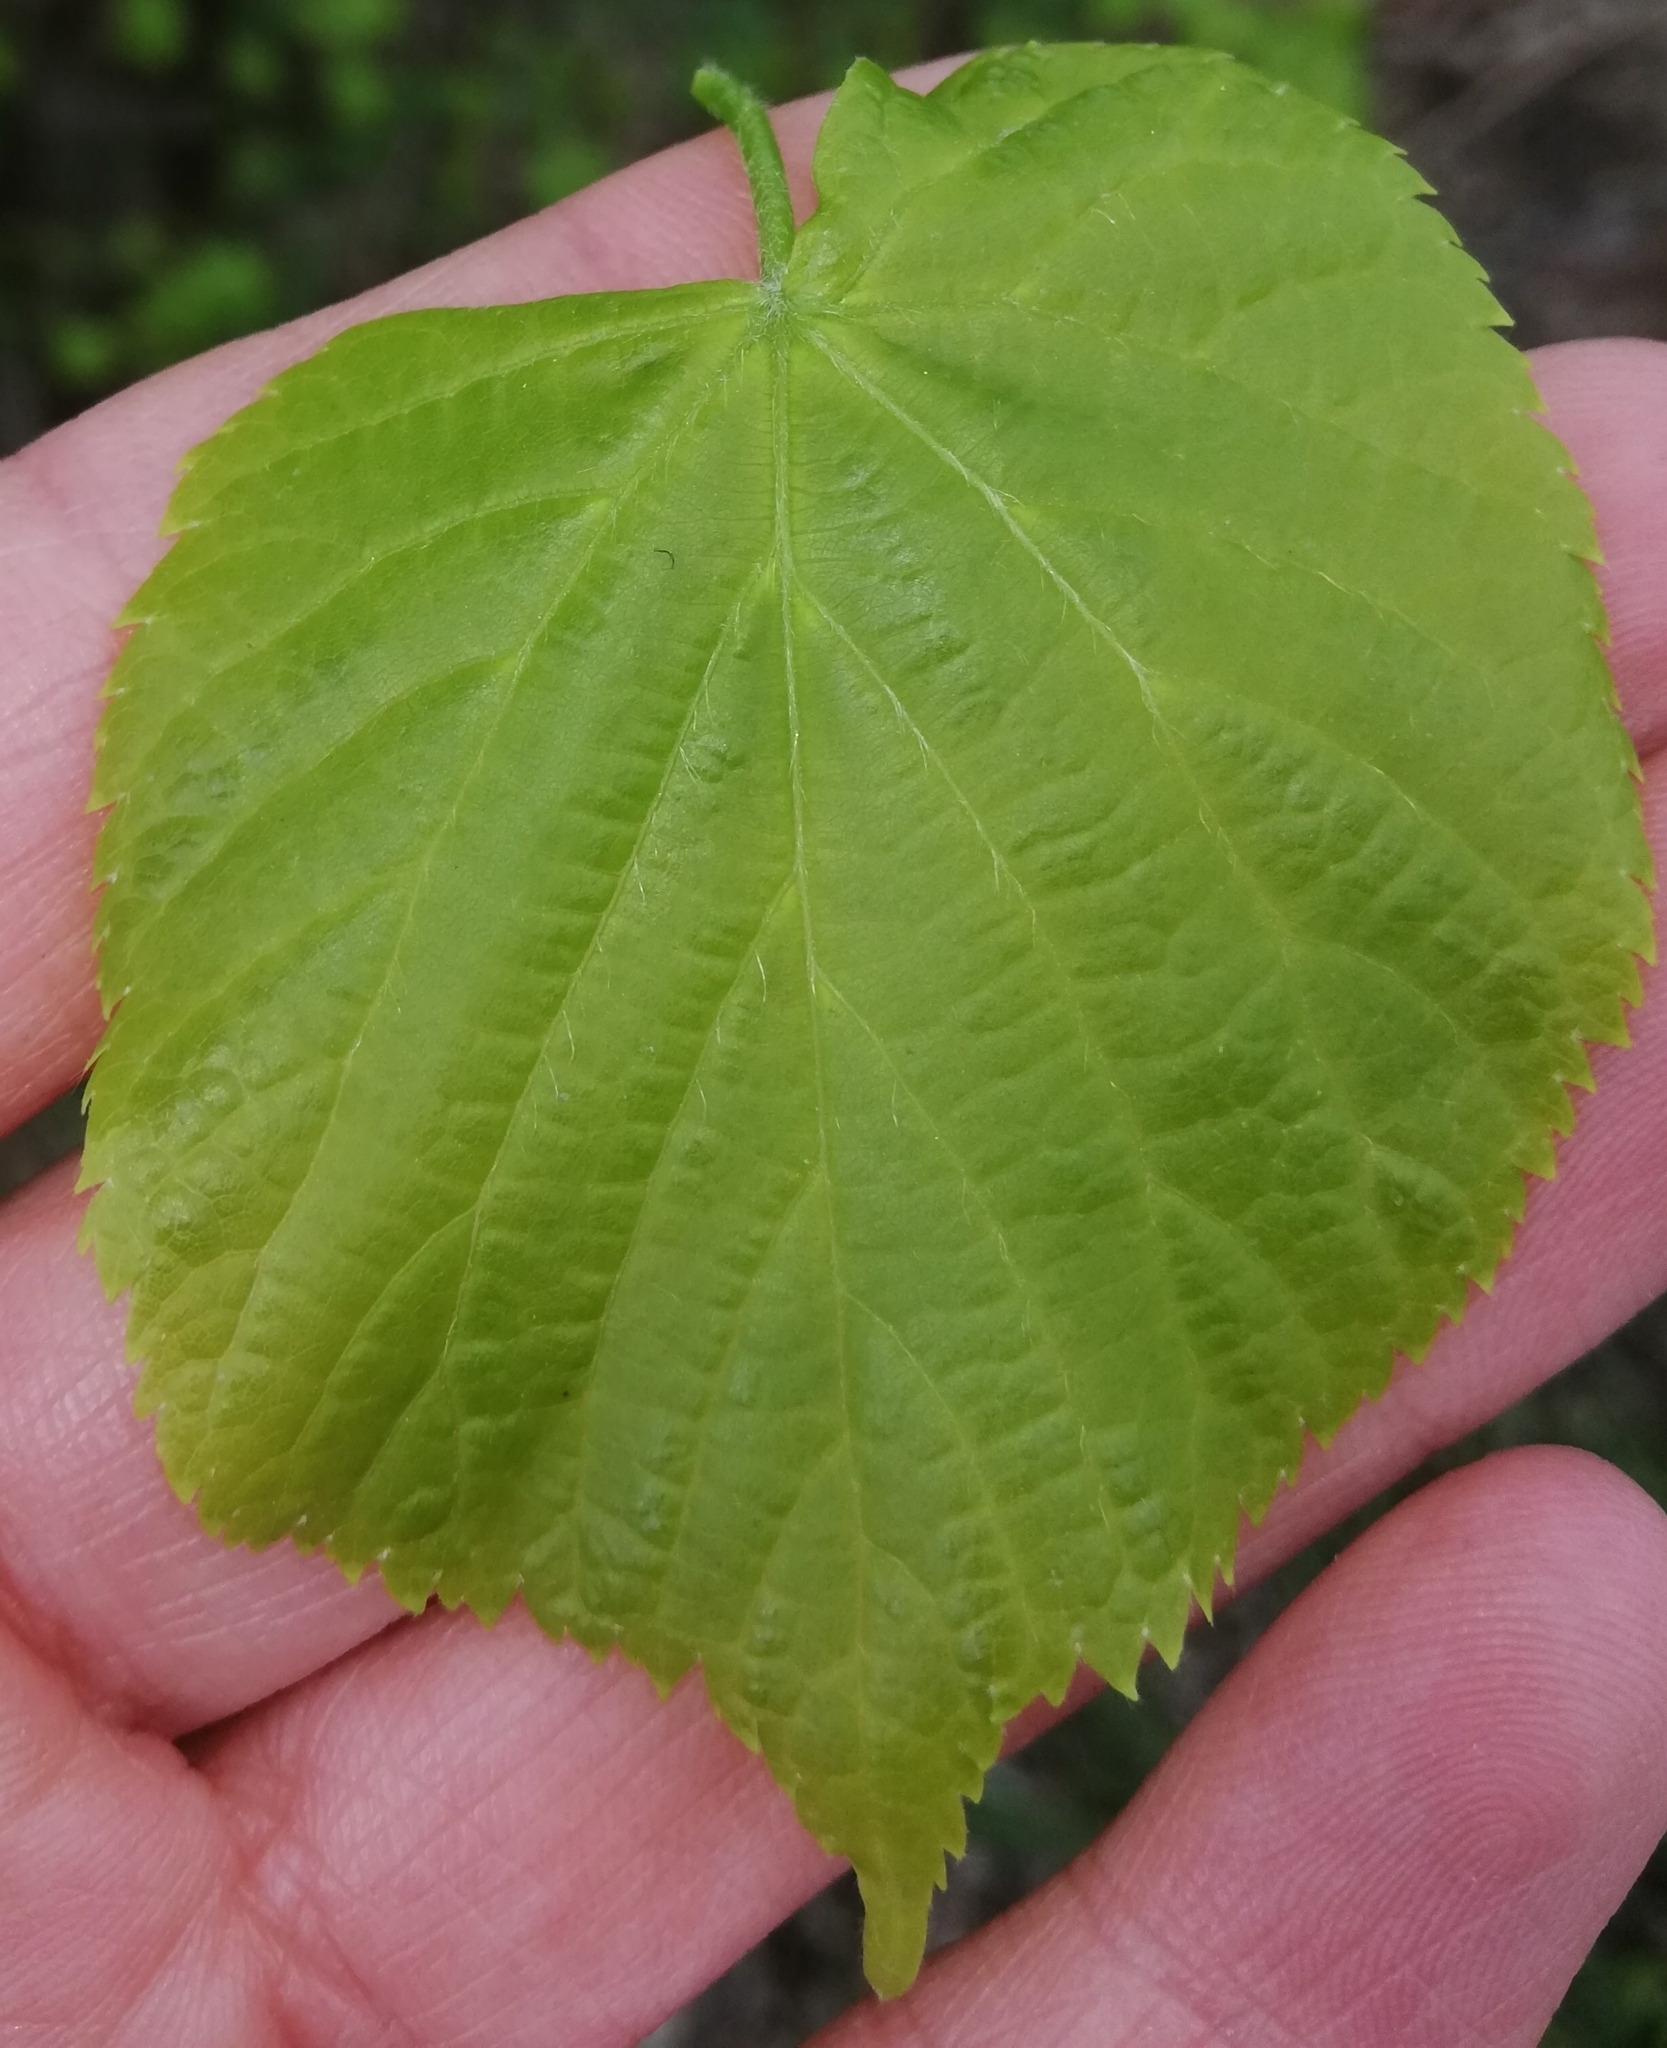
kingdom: Plantae
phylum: Tracheophyta
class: Magnoliopsida
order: Malvales
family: Malvaceae
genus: Tilia
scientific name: Tilia platyphyllos
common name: Large-leaved lime
